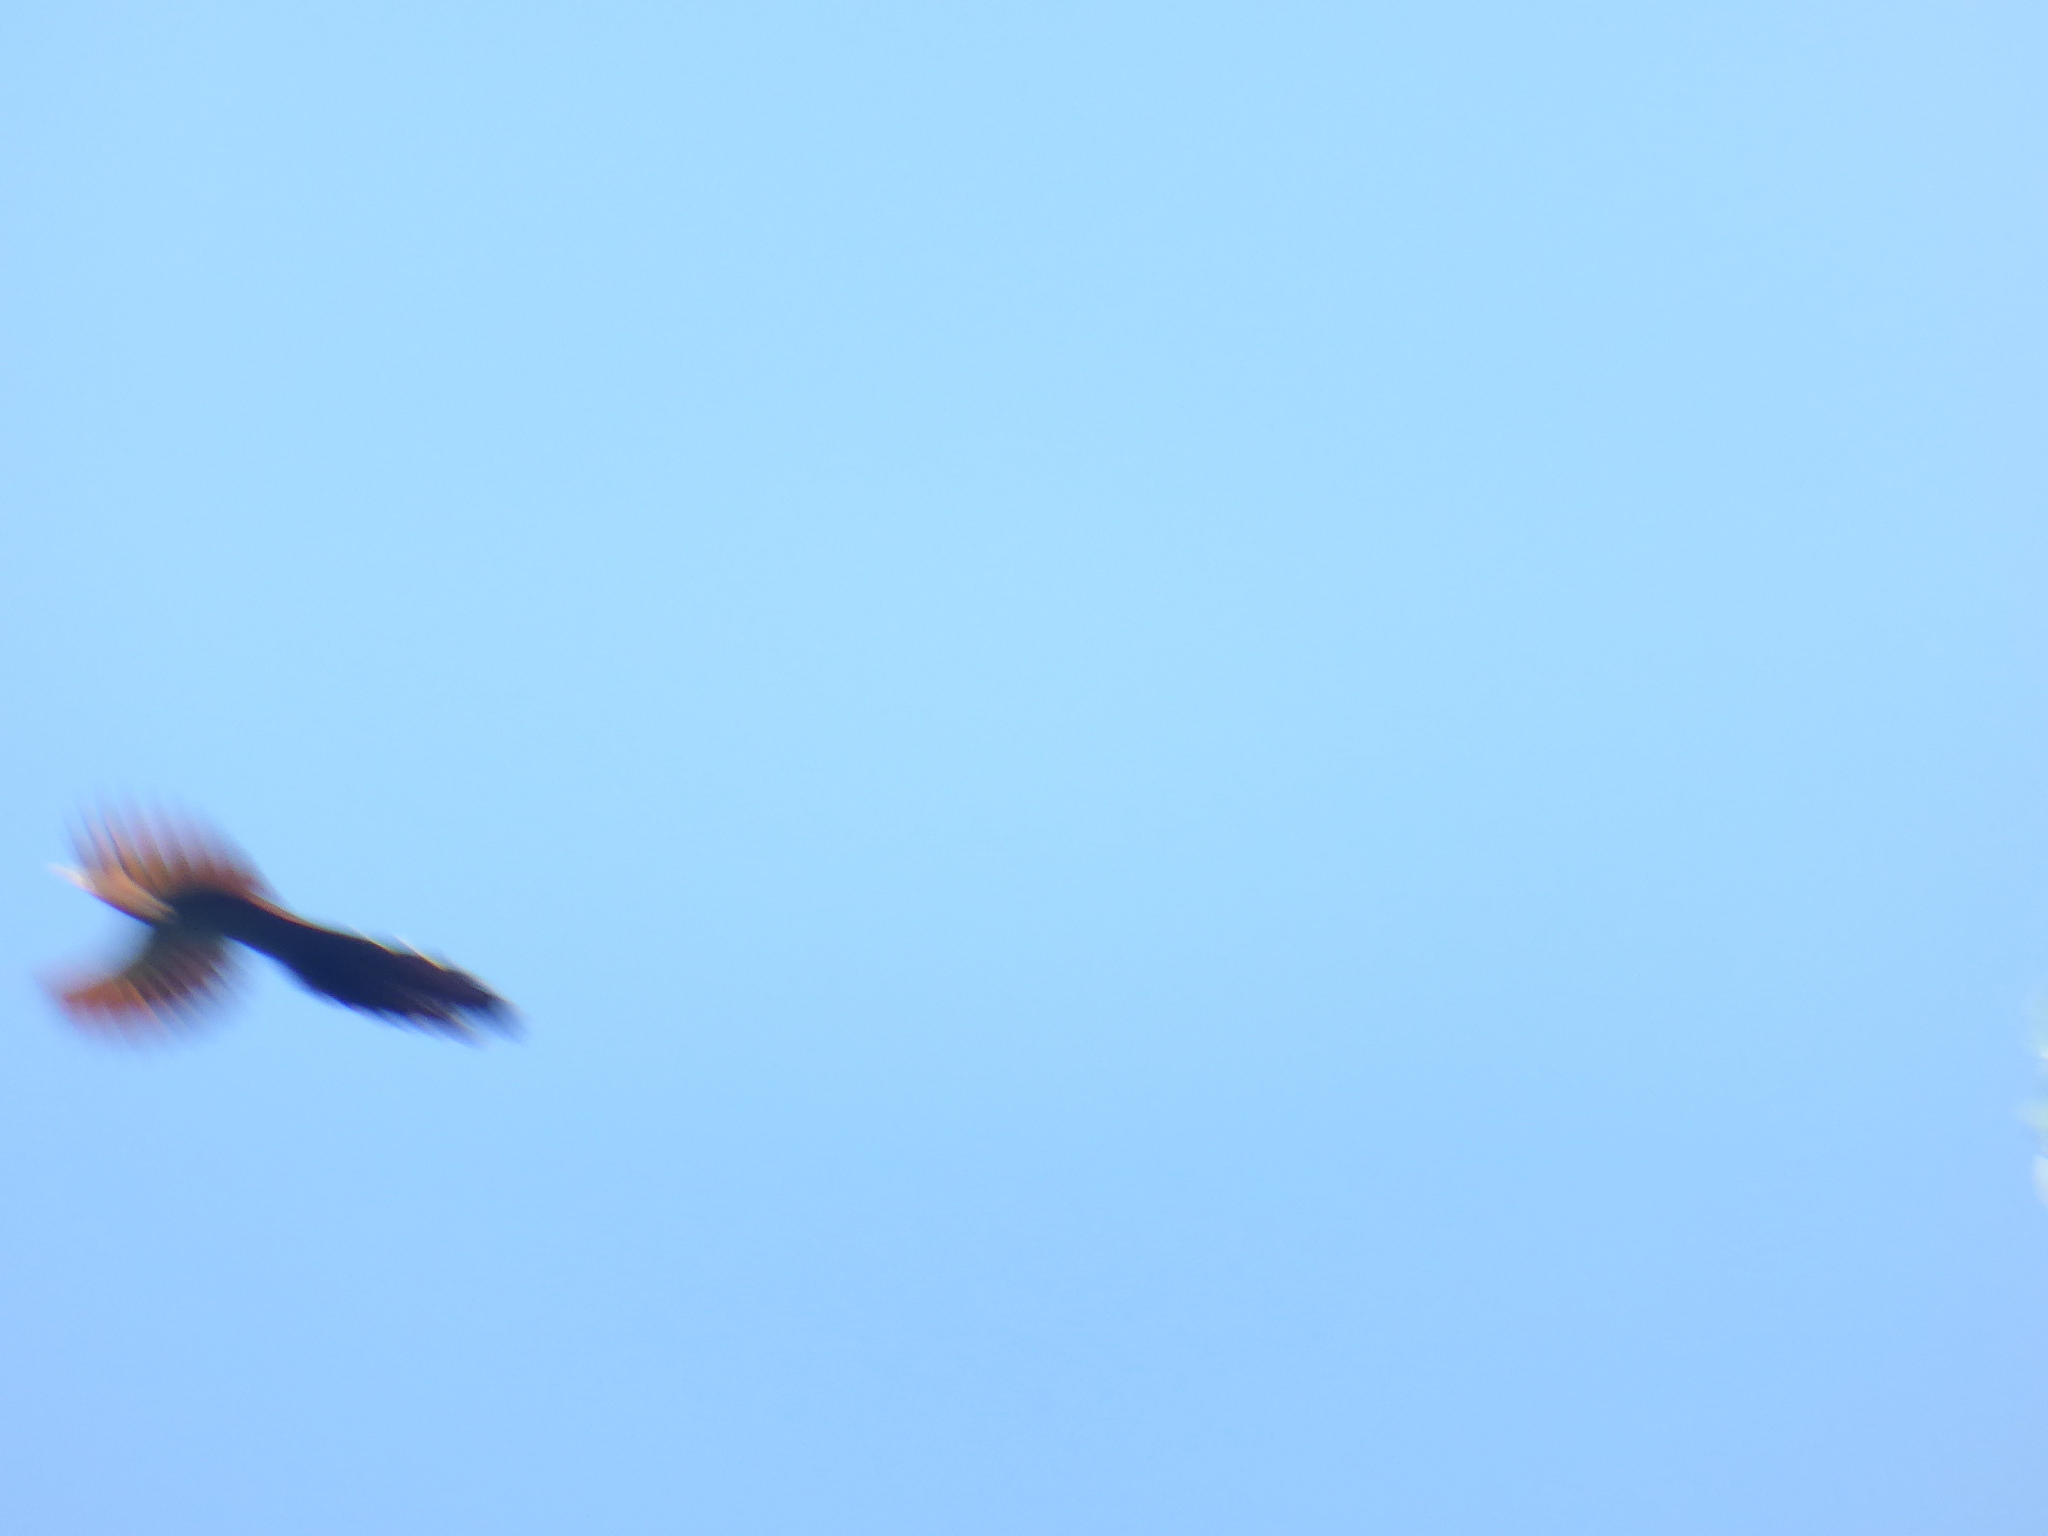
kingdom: Animalia
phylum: Chordata
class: Aves
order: Cuculiformes
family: Cuculidae
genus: Piaya
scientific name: Piaya cayana
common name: Squirrel cuckoo
